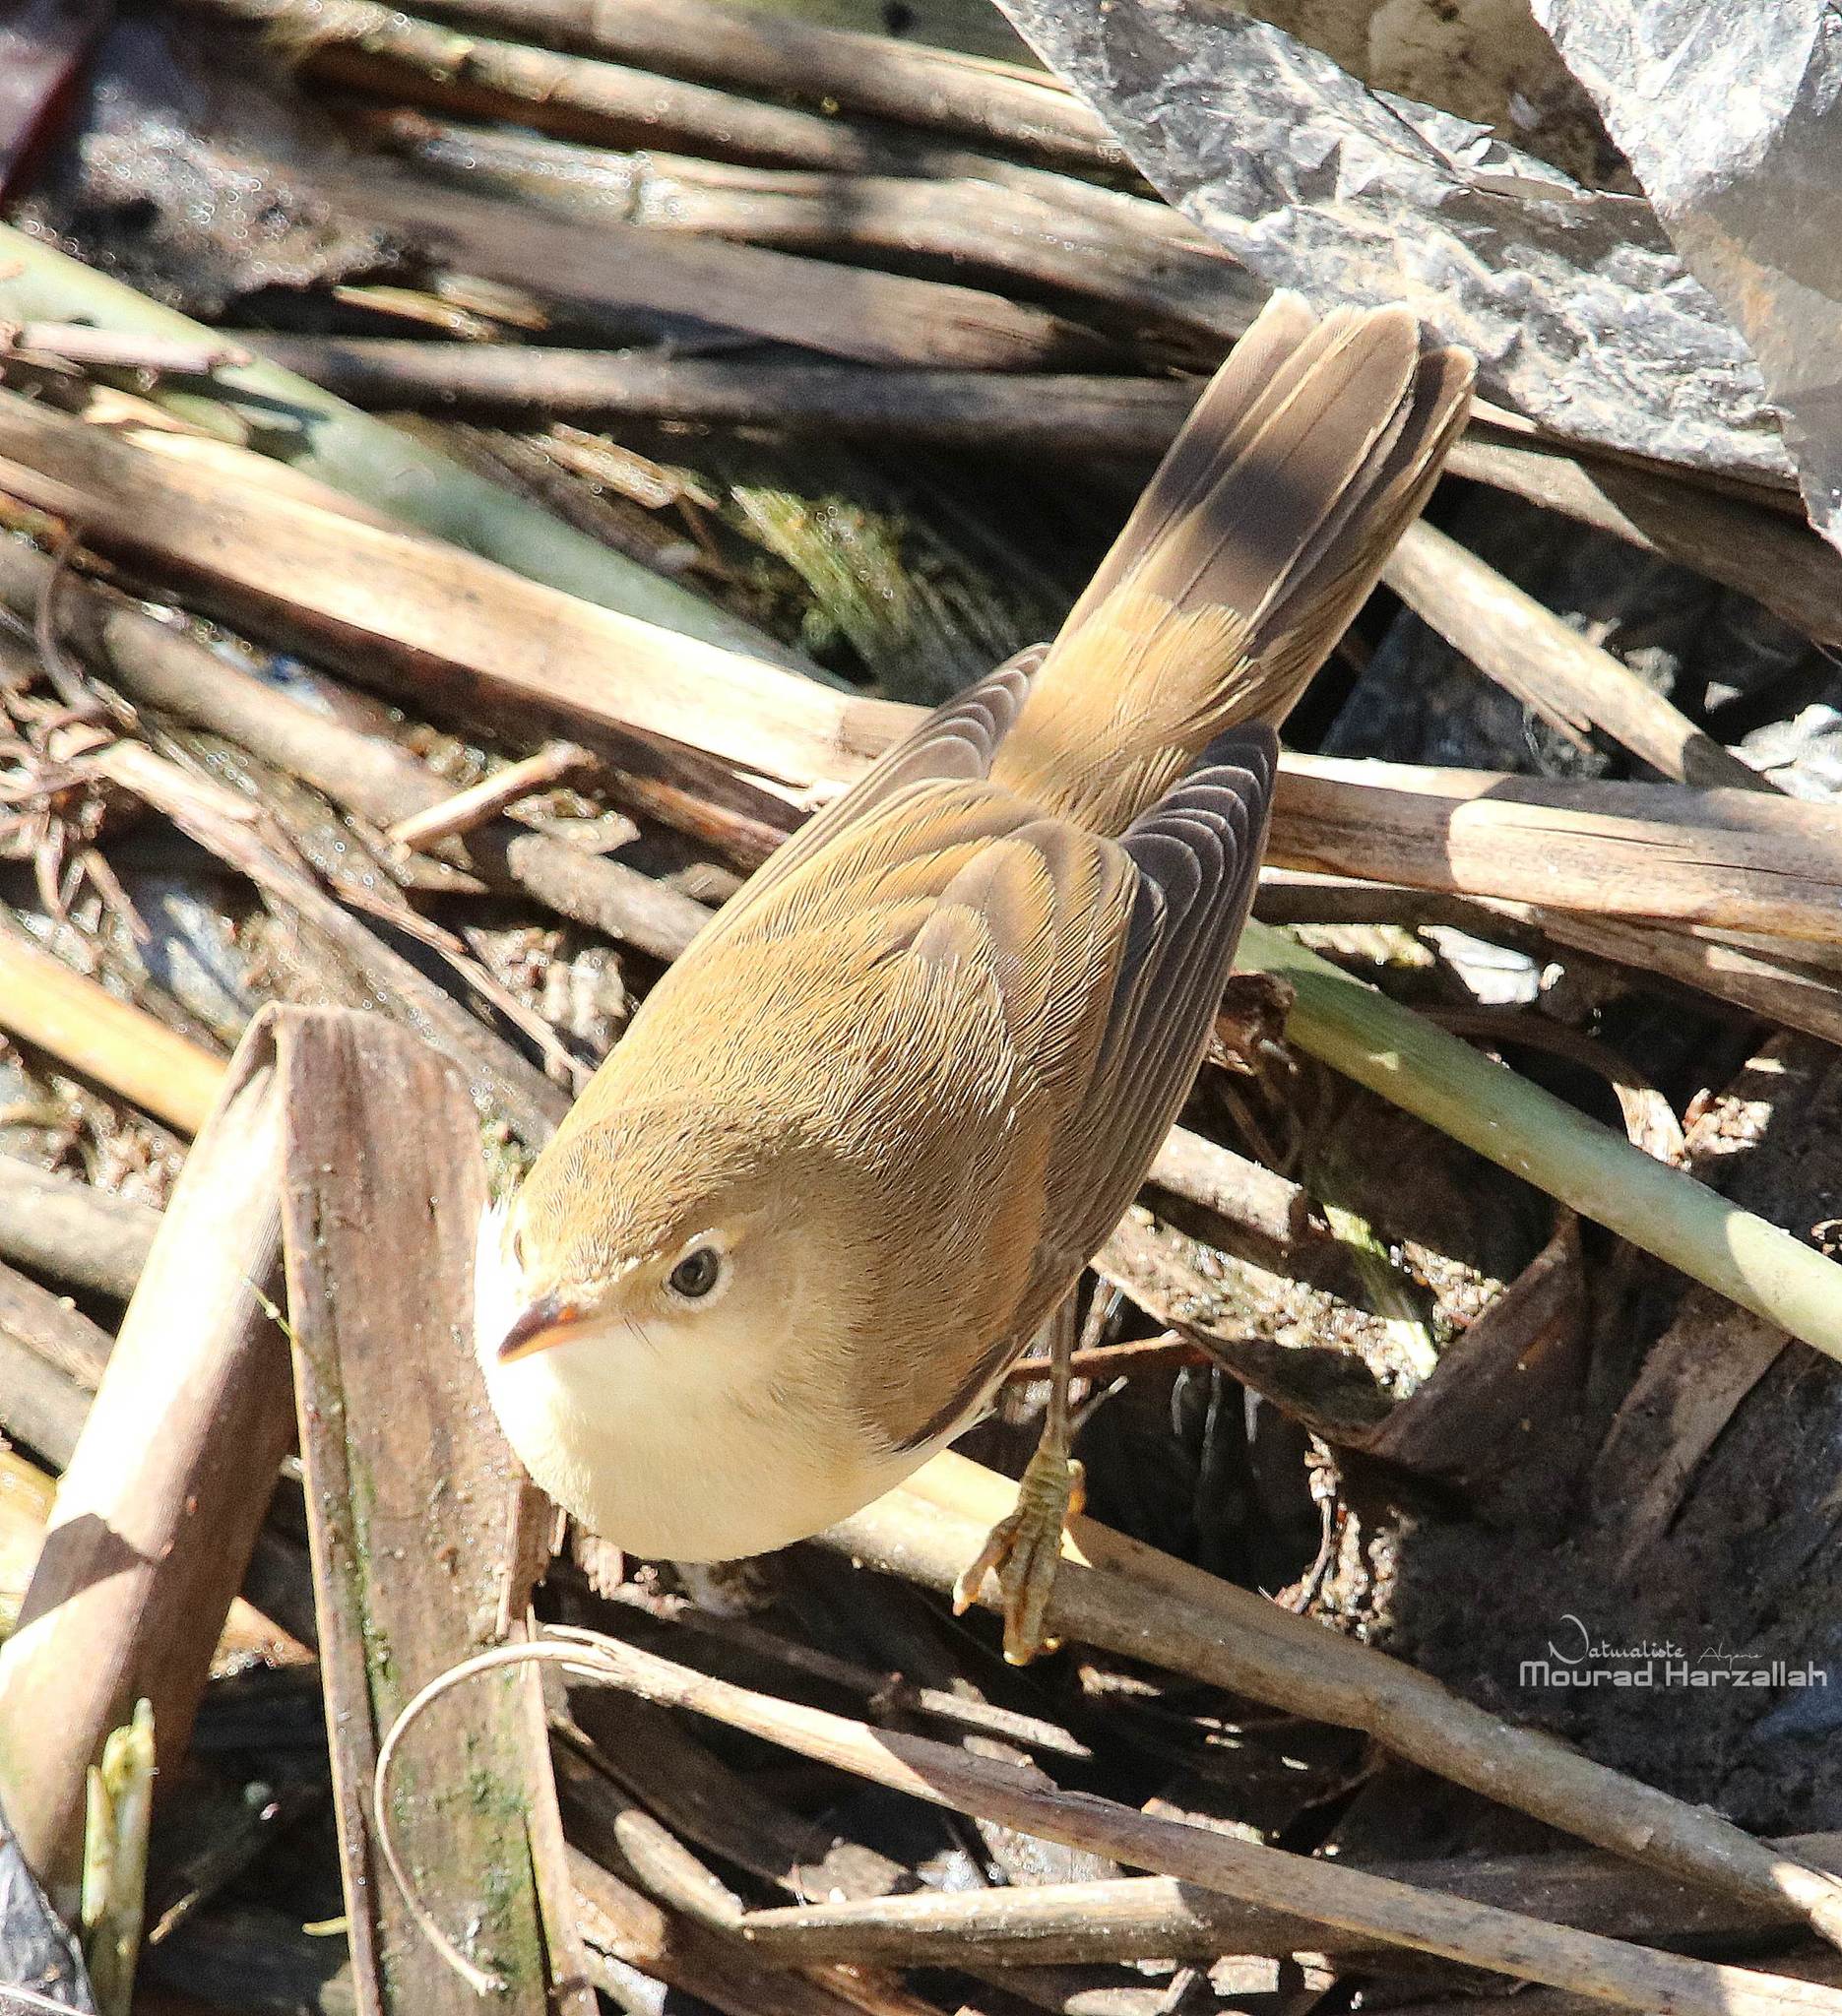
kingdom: Animalia
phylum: Chordata
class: Aves
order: Passeriformes
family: Acrocephalidae
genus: Acrocephalus
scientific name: Acrocephalus scirpaceus
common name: Eurasian reed warbler
